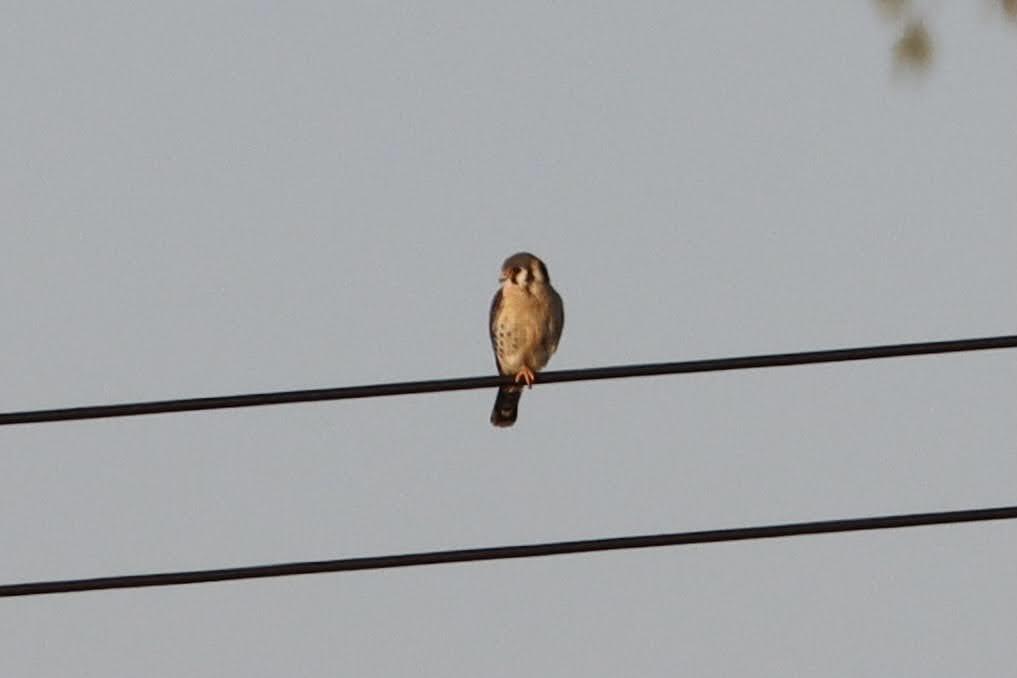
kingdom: Animalia
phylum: Chordata
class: Aves
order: Falconiformes
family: Falconidae
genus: Falco
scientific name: Falco sparverius
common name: American kestrel
